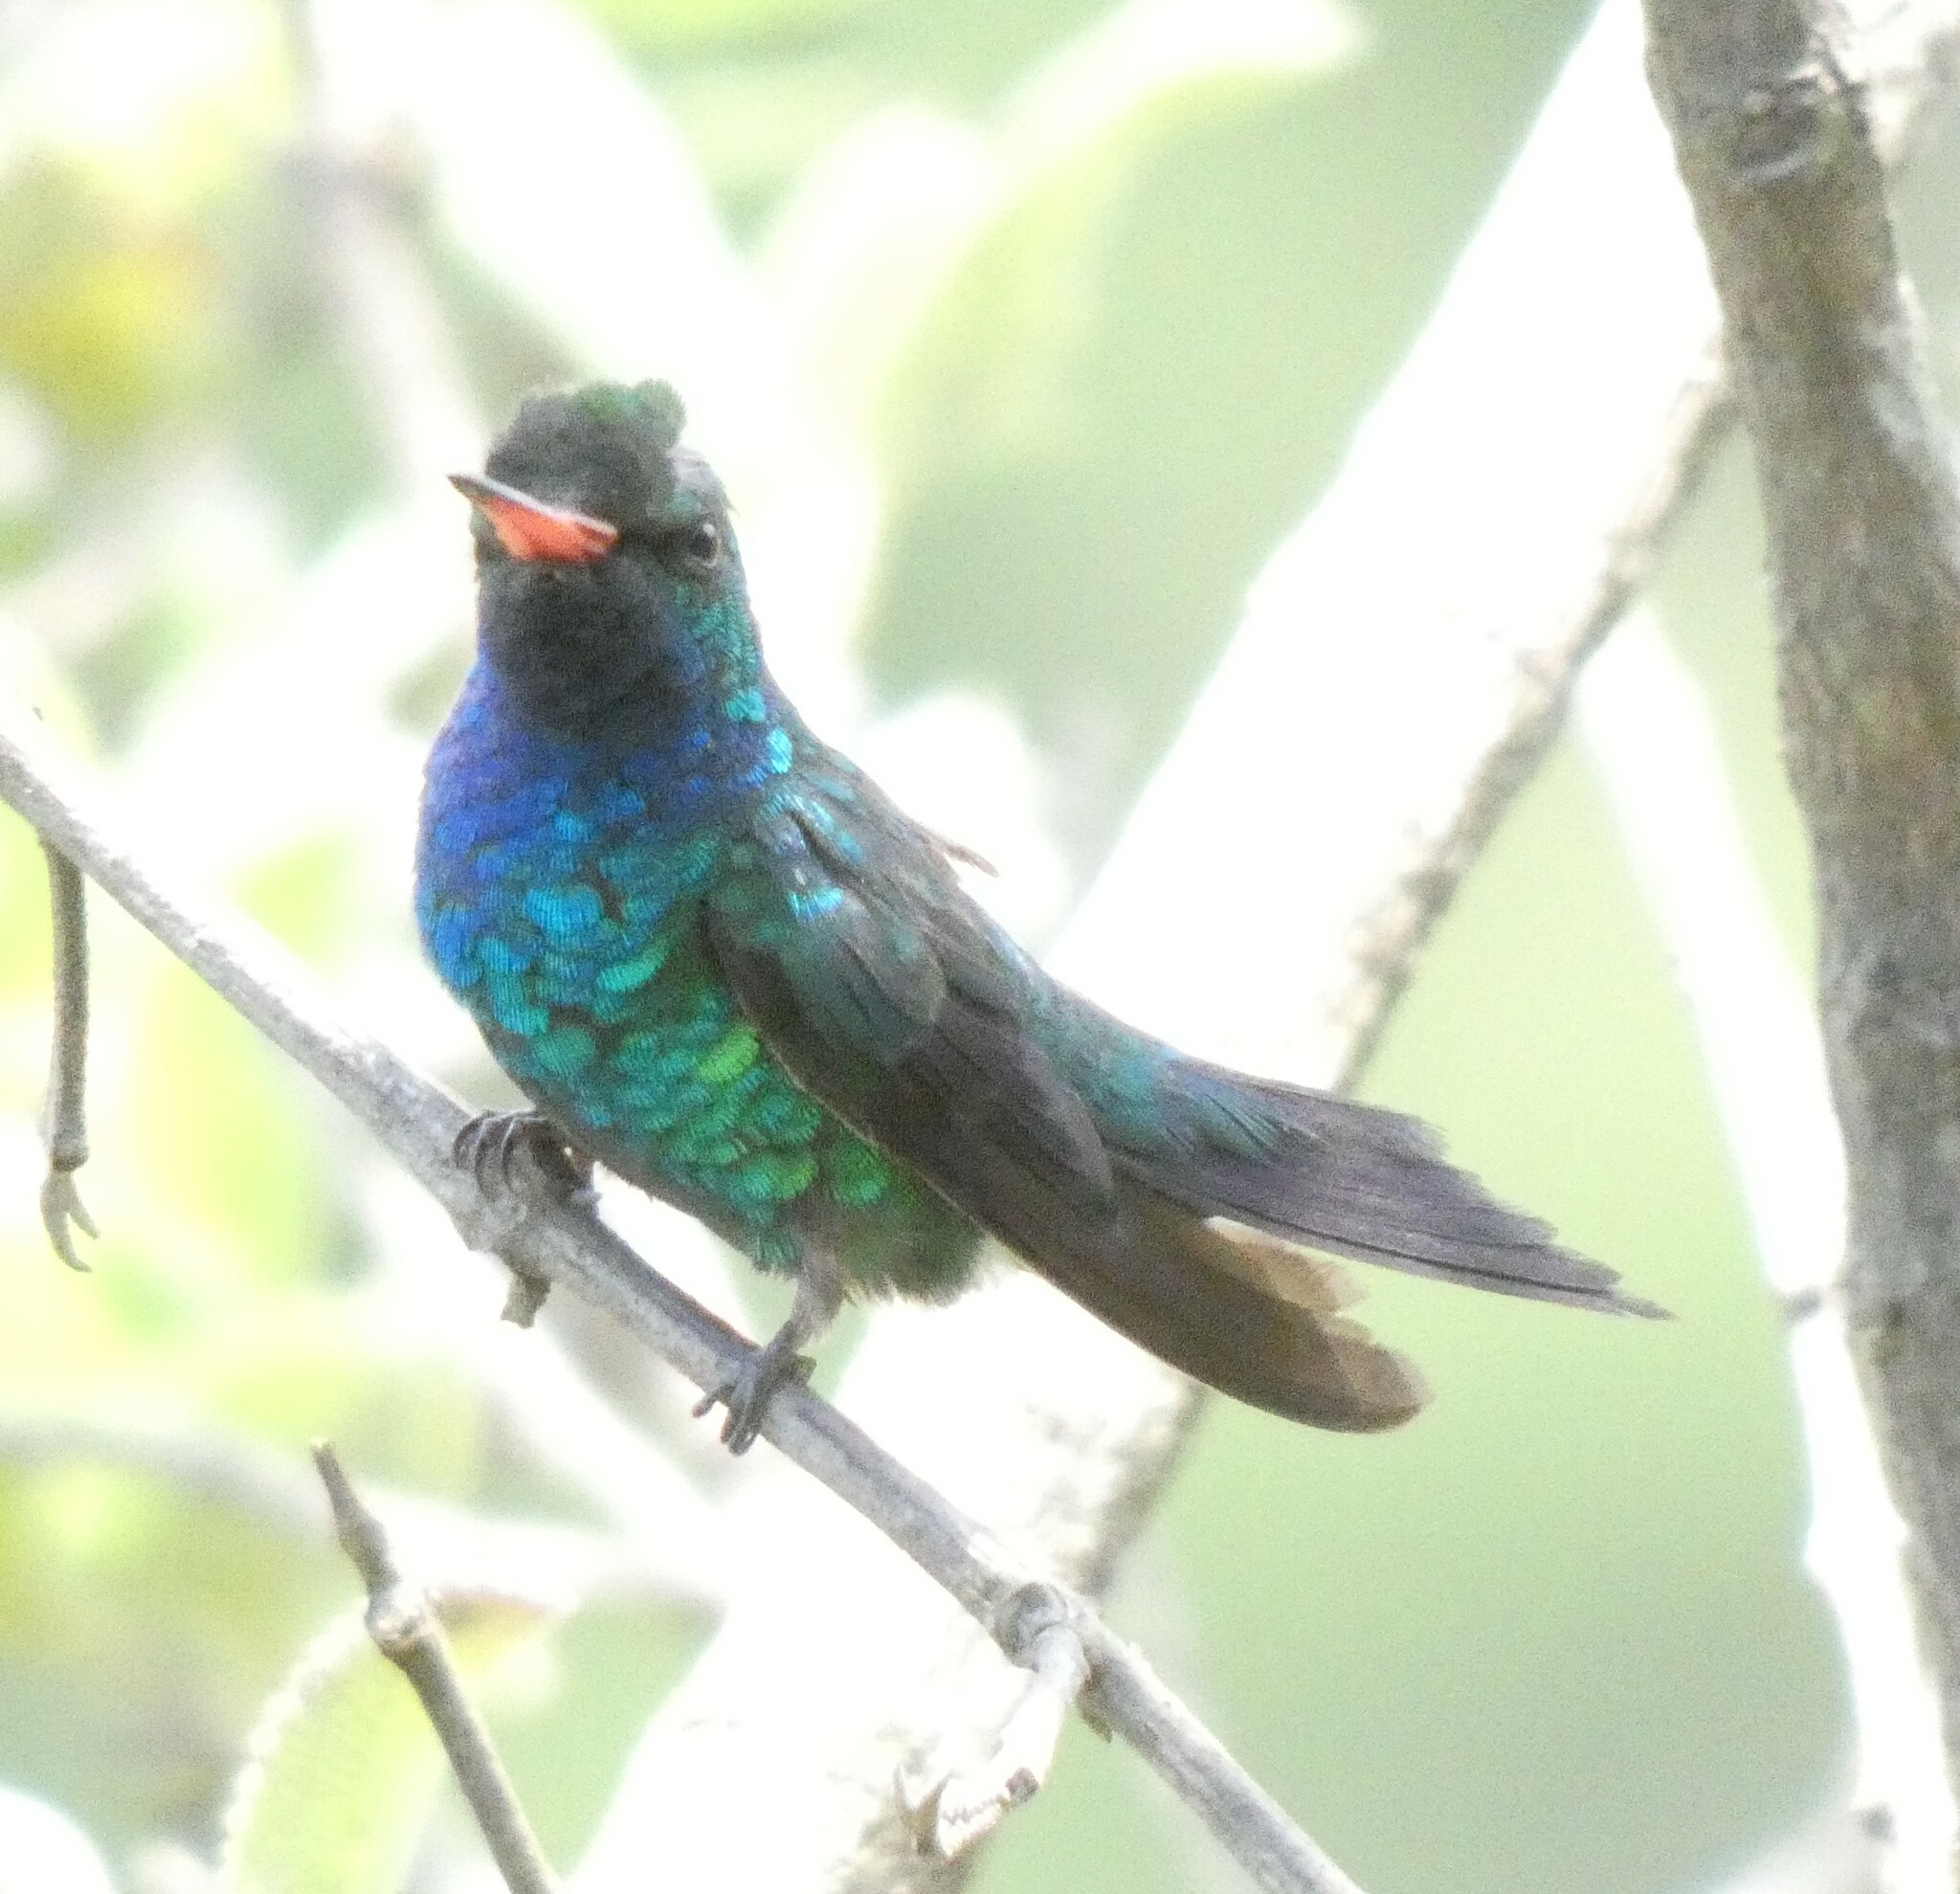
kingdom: Animalia
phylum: Chordata
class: Aves
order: Apodiformes
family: Trochilidae
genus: Chlorostilbon
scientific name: Chlorostilbon lucidus
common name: Glittering-bellied emerald
